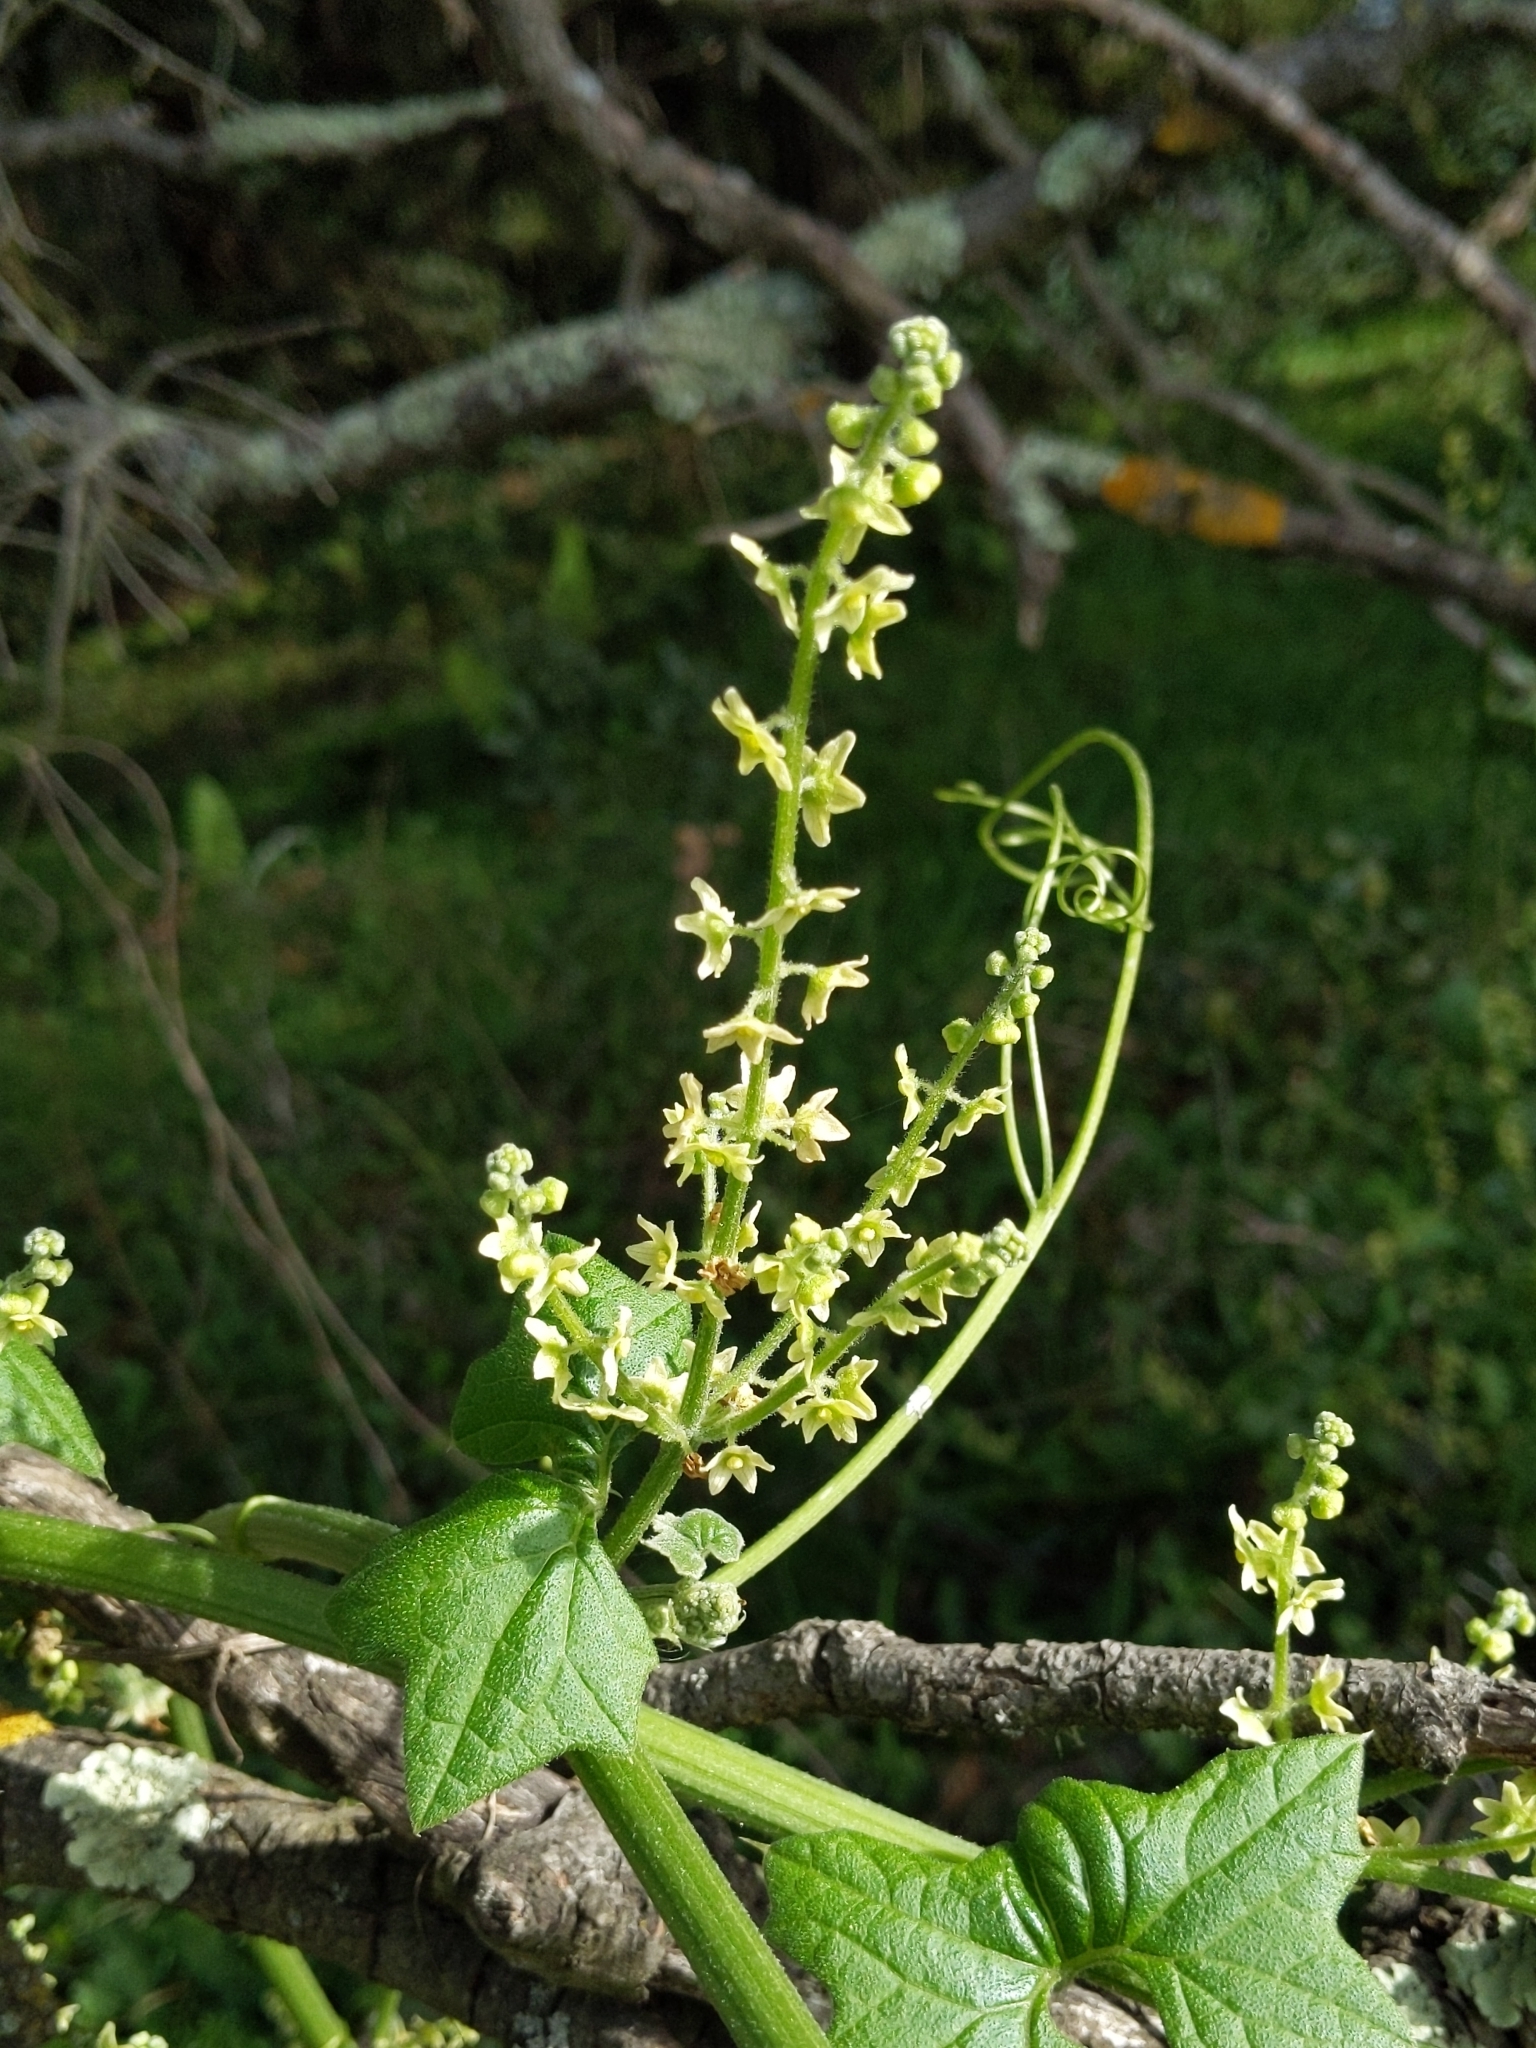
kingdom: Plantae
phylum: Tracheophyta
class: Magnoliopsida
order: Cucurbitales
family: Cucurbitaceae
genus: Marah
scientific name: Marah fabacea
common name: California manroot
